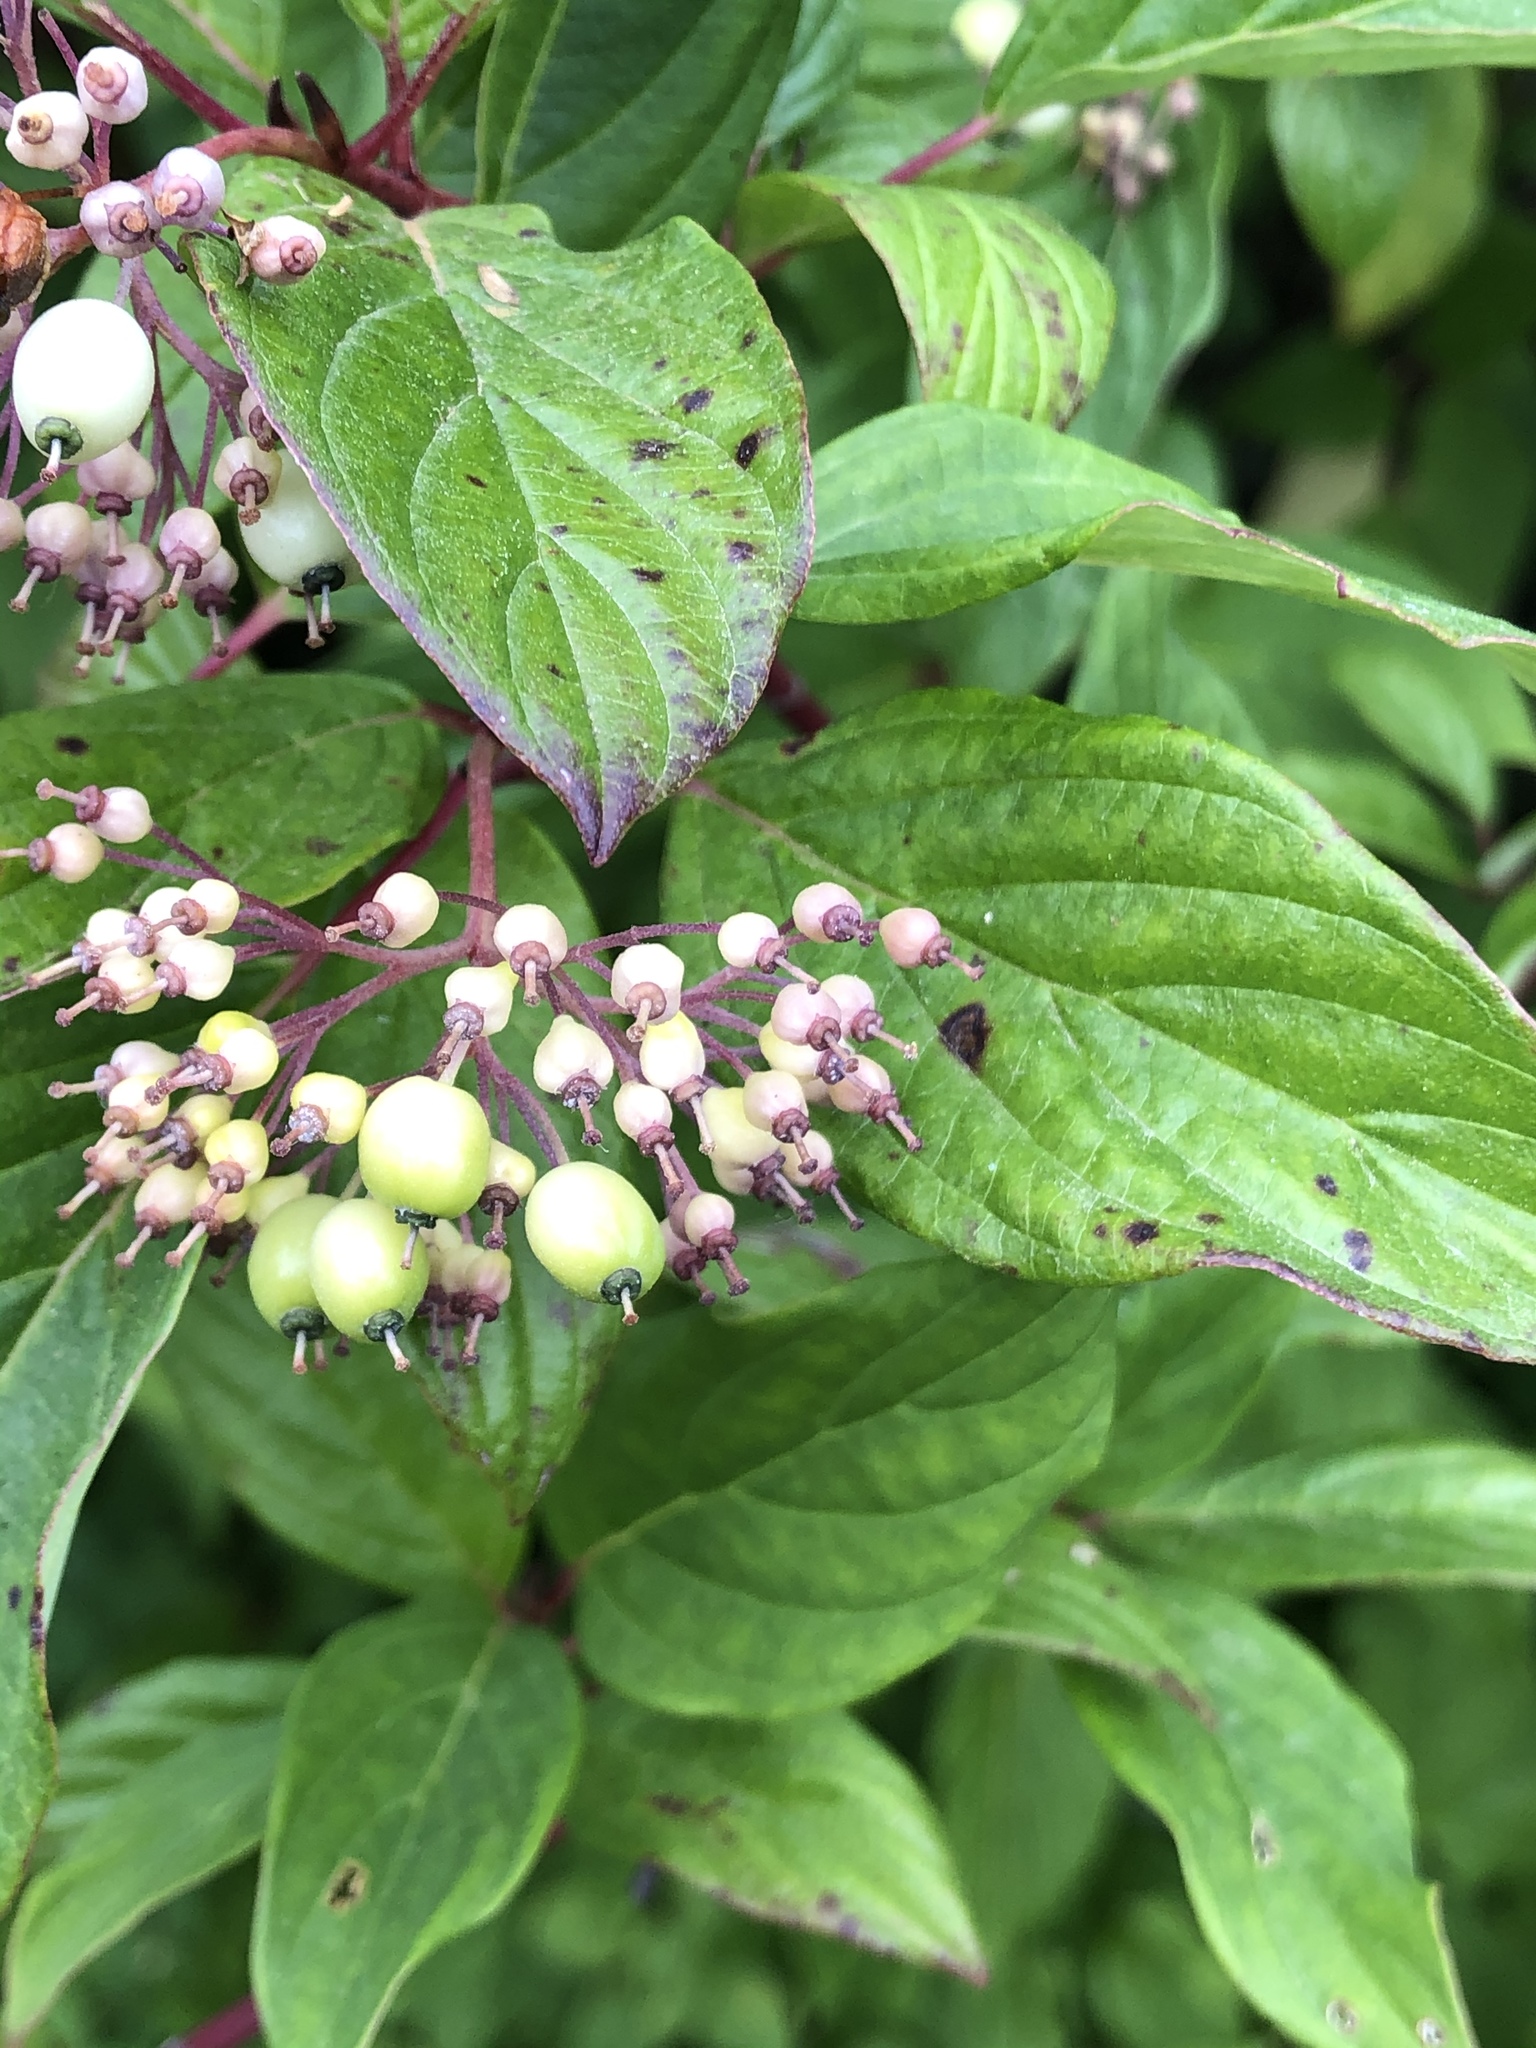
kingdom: Plantae
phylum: Tracheophyta
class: Magnoliopsida
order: Cornales
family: Cornaceae
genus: Cornus
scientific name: Cornus sericea
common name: Red-osier dogwood
